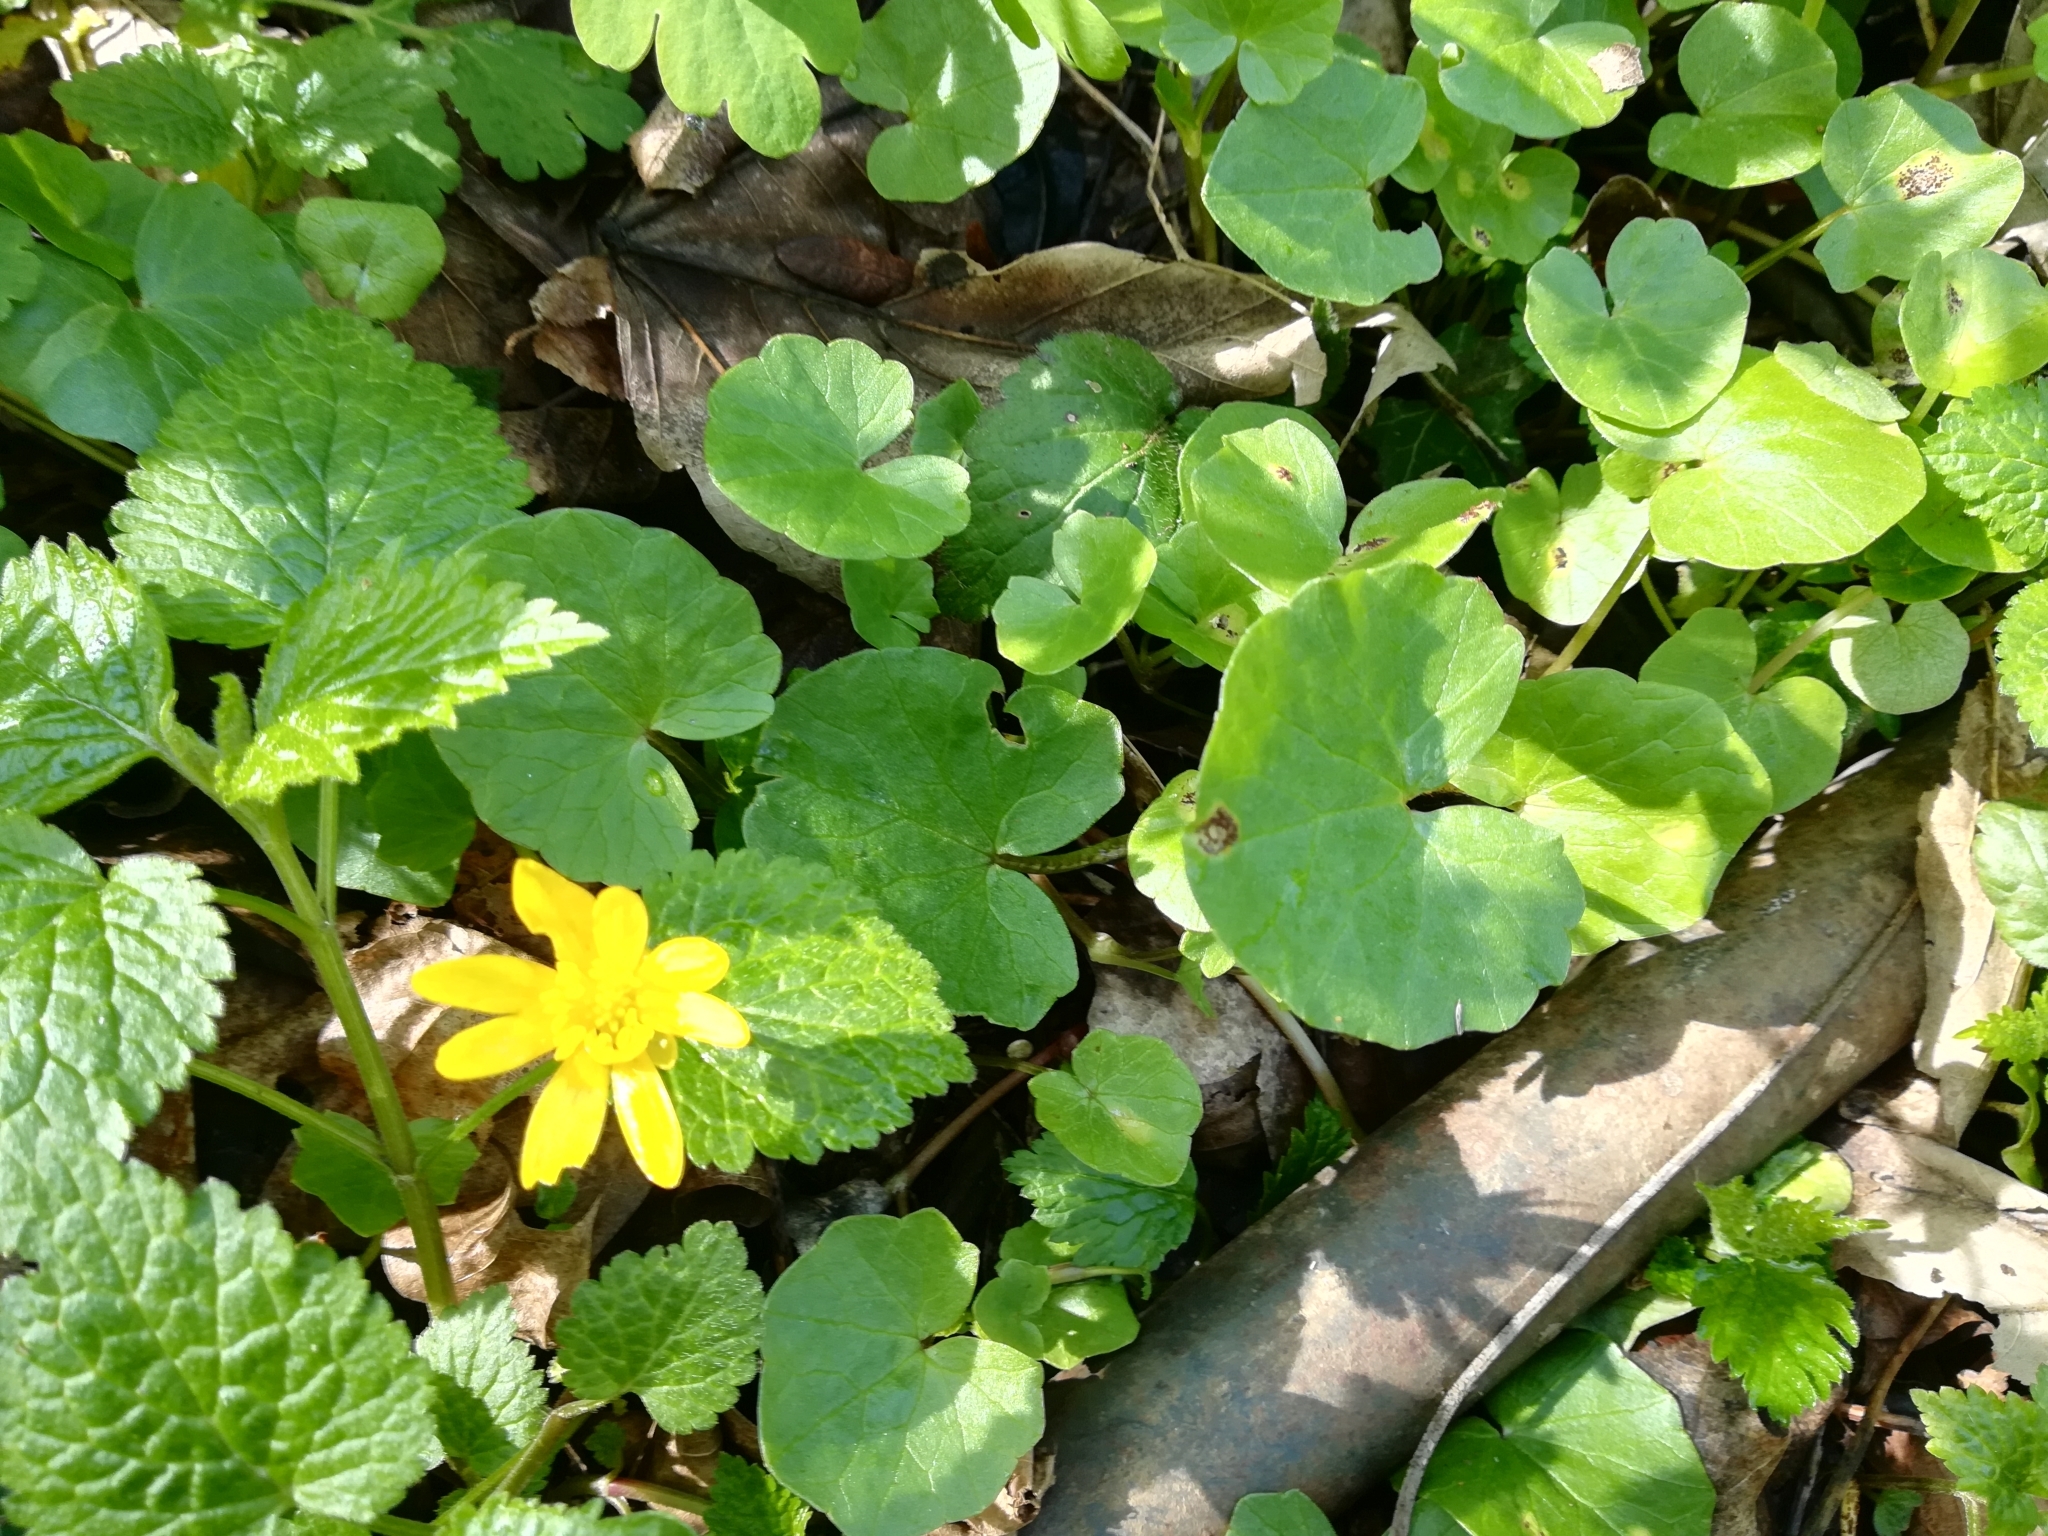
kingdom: Plantae
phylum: Tracheophyta
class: Magnoliopsida
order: Ranunculales
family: Ranunculaceae
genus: Ficaria
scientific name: Ficaria verna
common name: Lesser celandine
